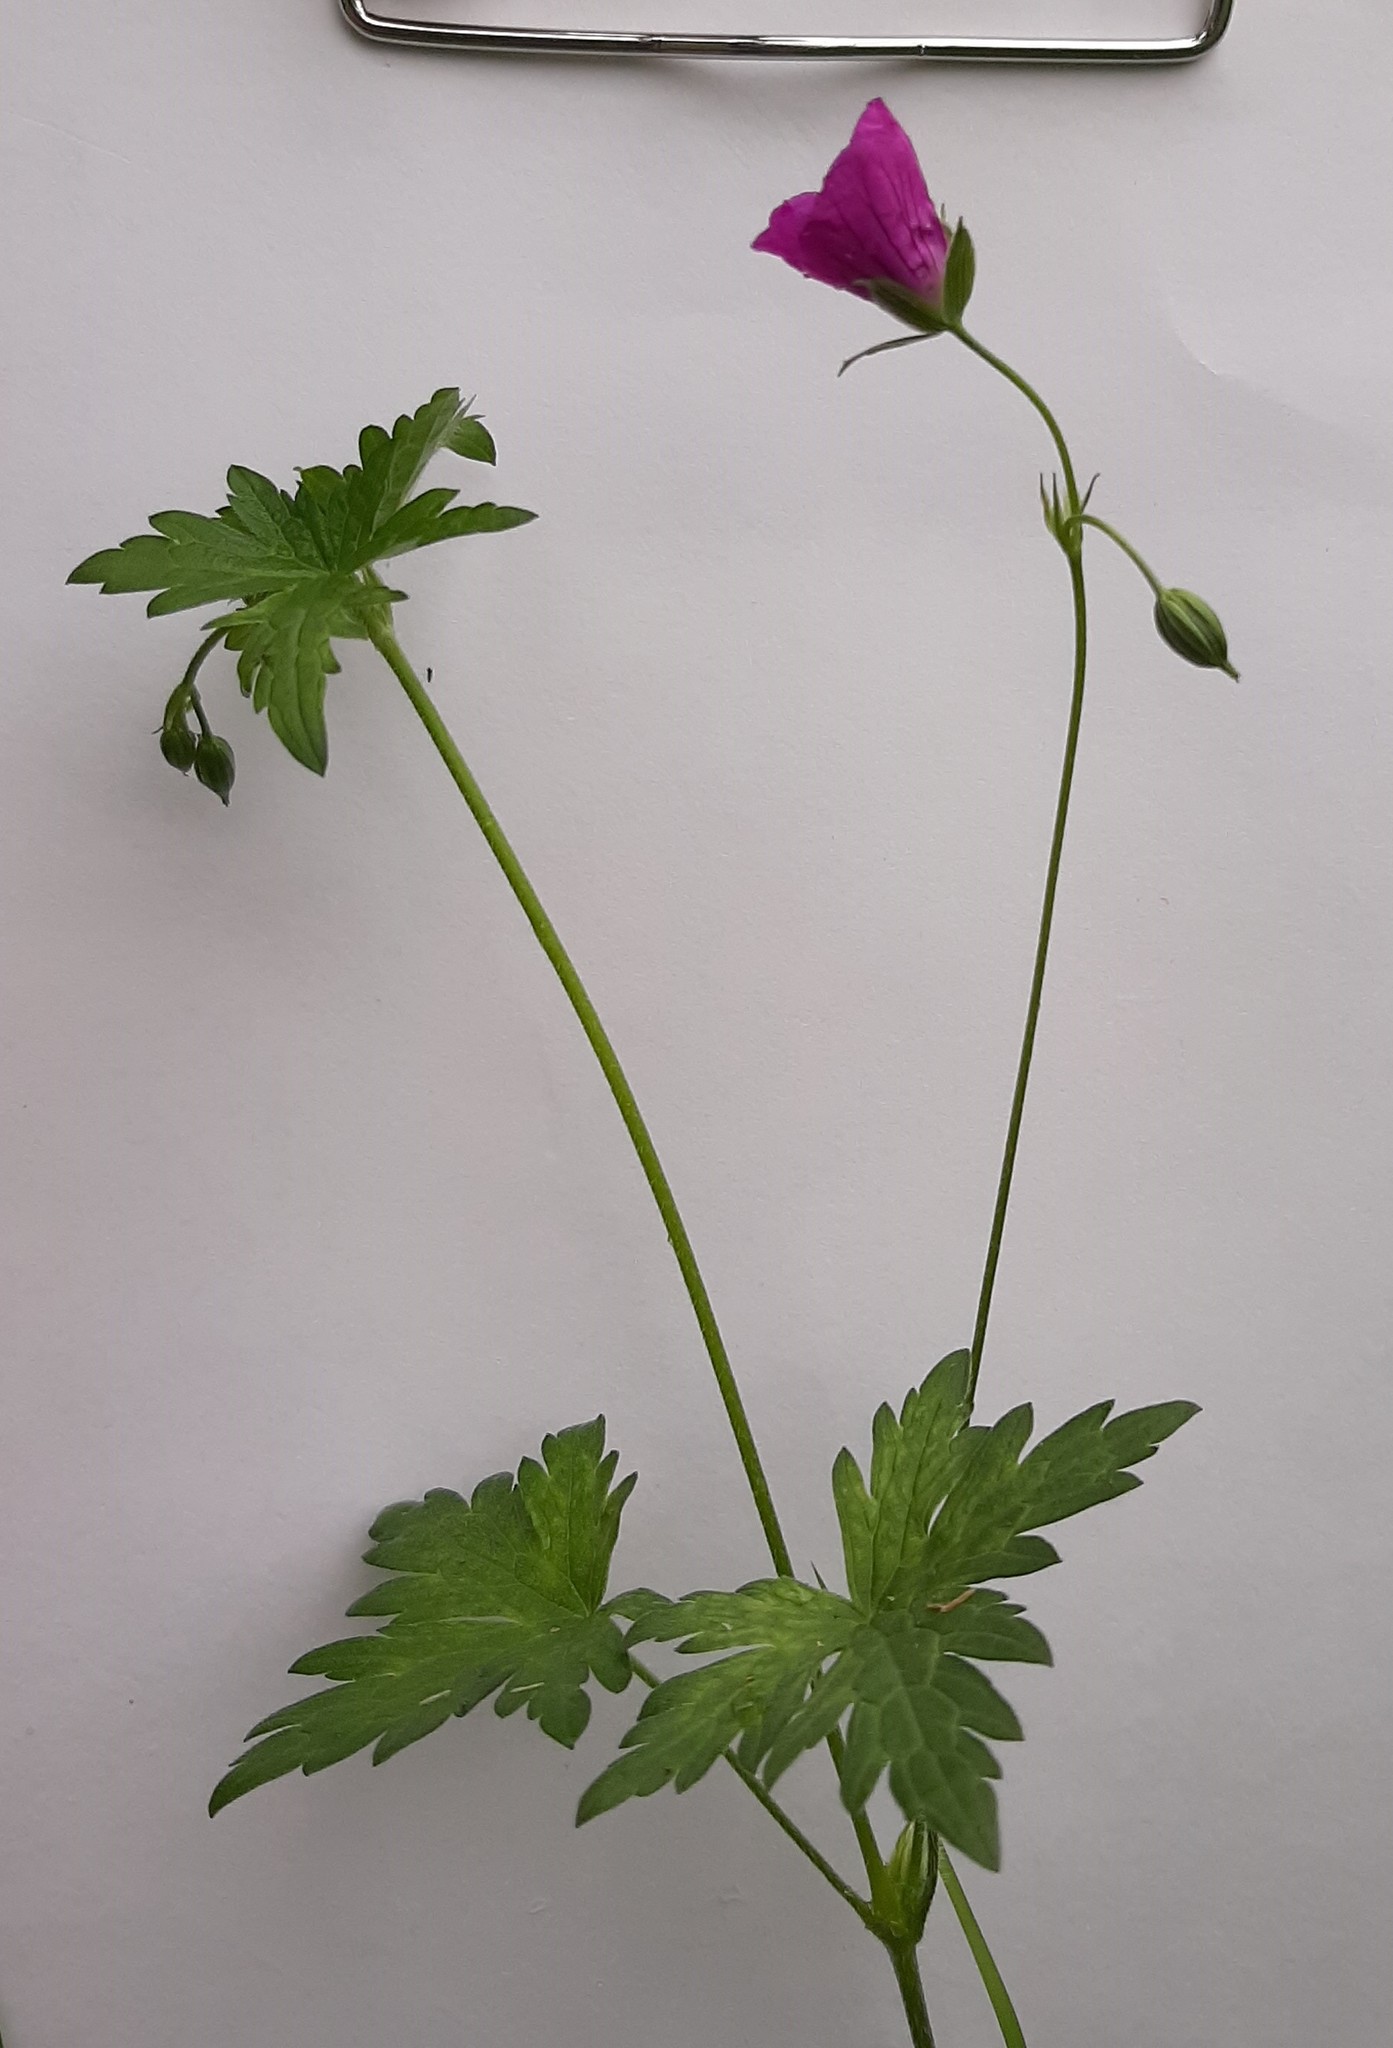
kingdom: Plantae
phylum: Tracheophyta
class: Magnoliopsida
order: Geraniales
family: Geraniaceae
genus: Geranium
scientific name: Geranium palustre
